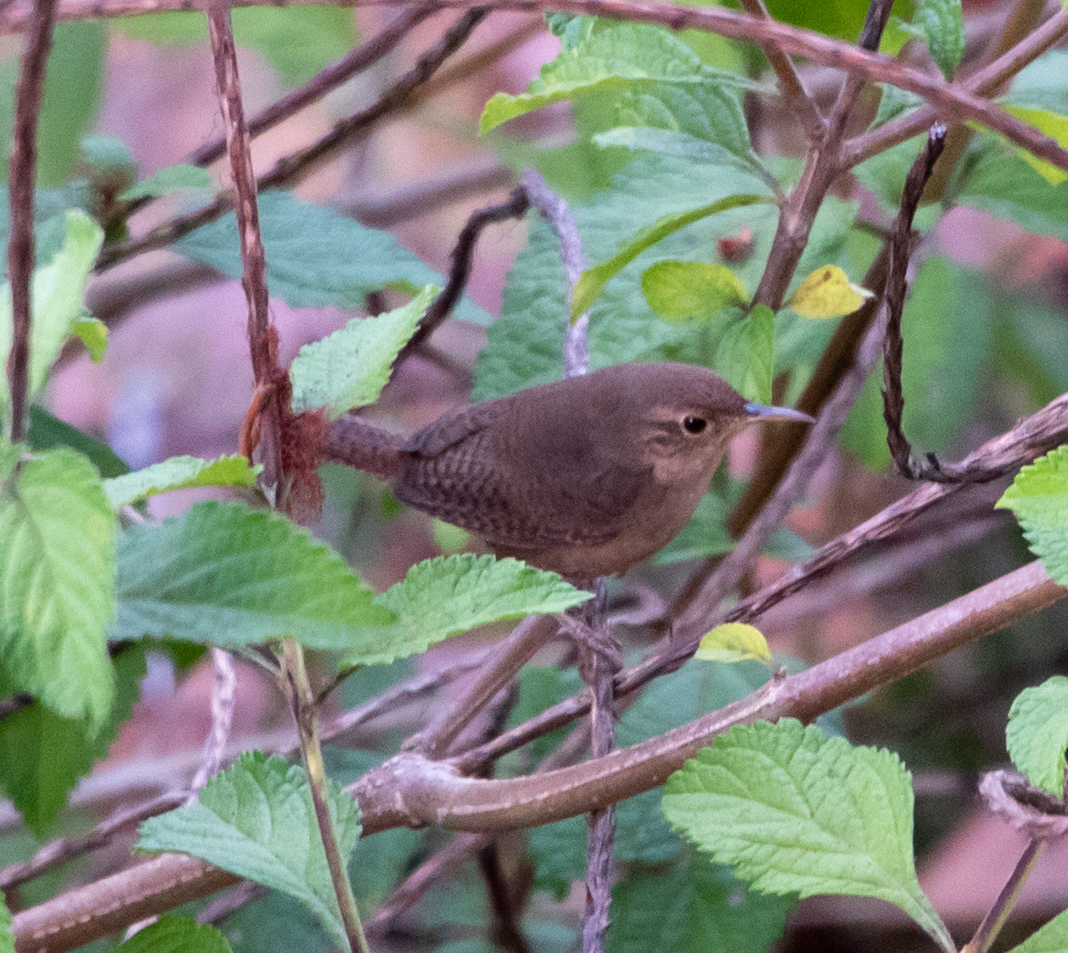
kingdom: Animalia
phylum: Chordata
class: Aves
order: Passeriformes
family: Troglodytidae
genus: Troglodytes
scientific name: Troglodytes aedon
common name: House wren
